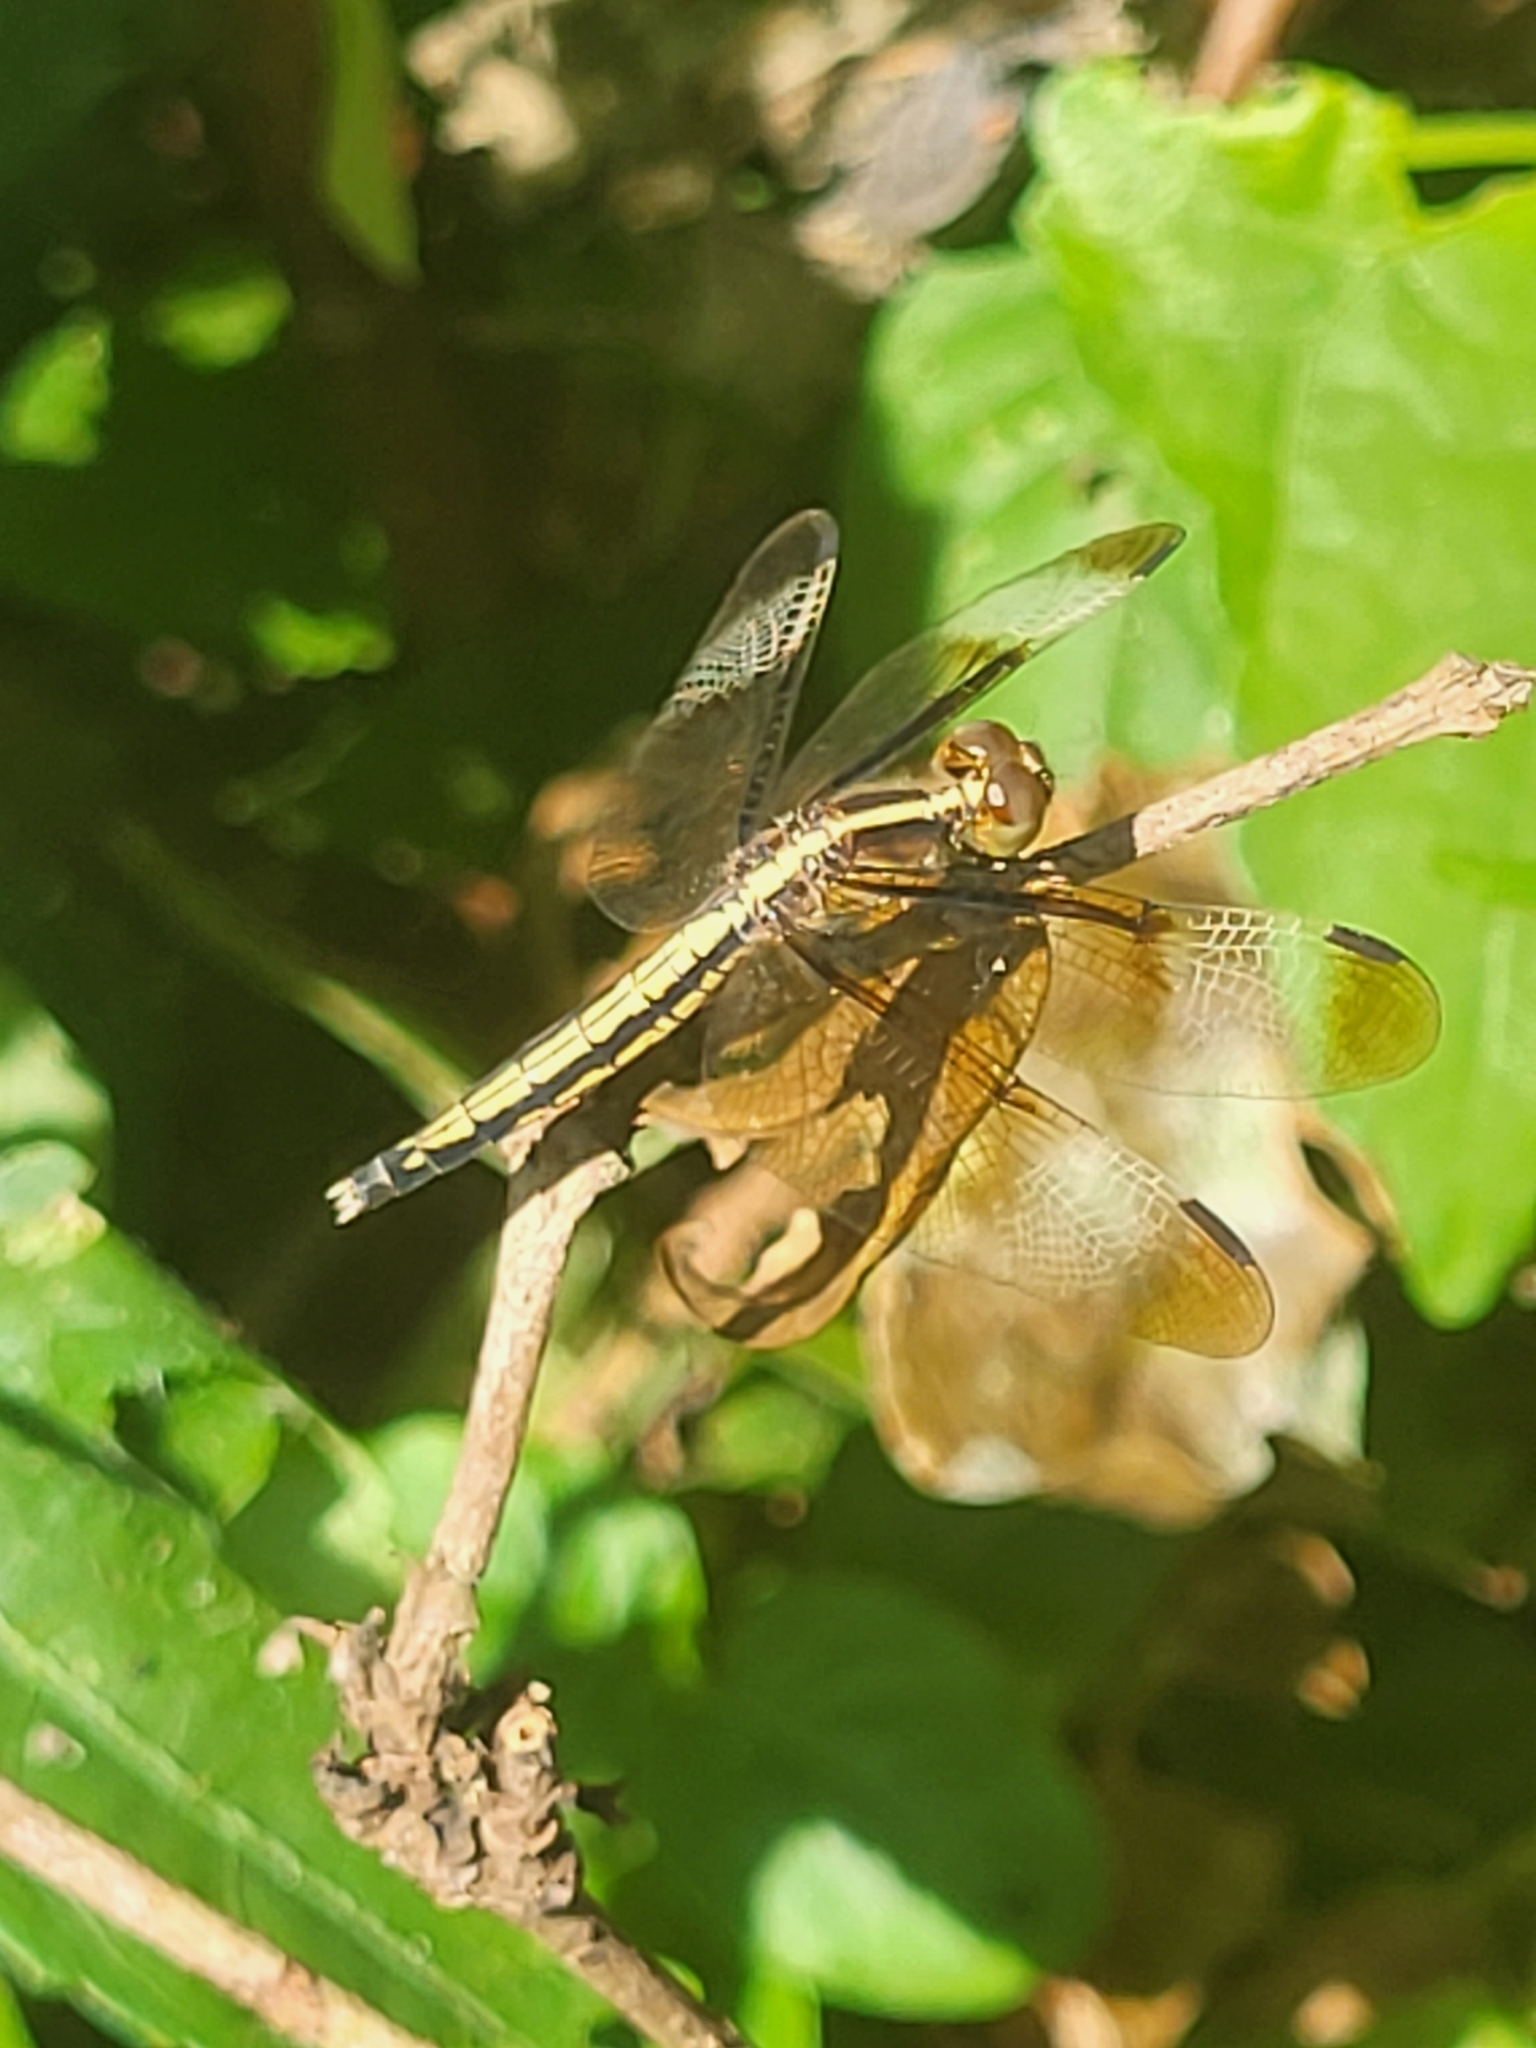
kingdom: Animalia
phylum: Arthropoda
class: Insecta
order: Odonata
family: Libellulidae
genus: Neurothemis
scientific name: Neurothemis tullia
